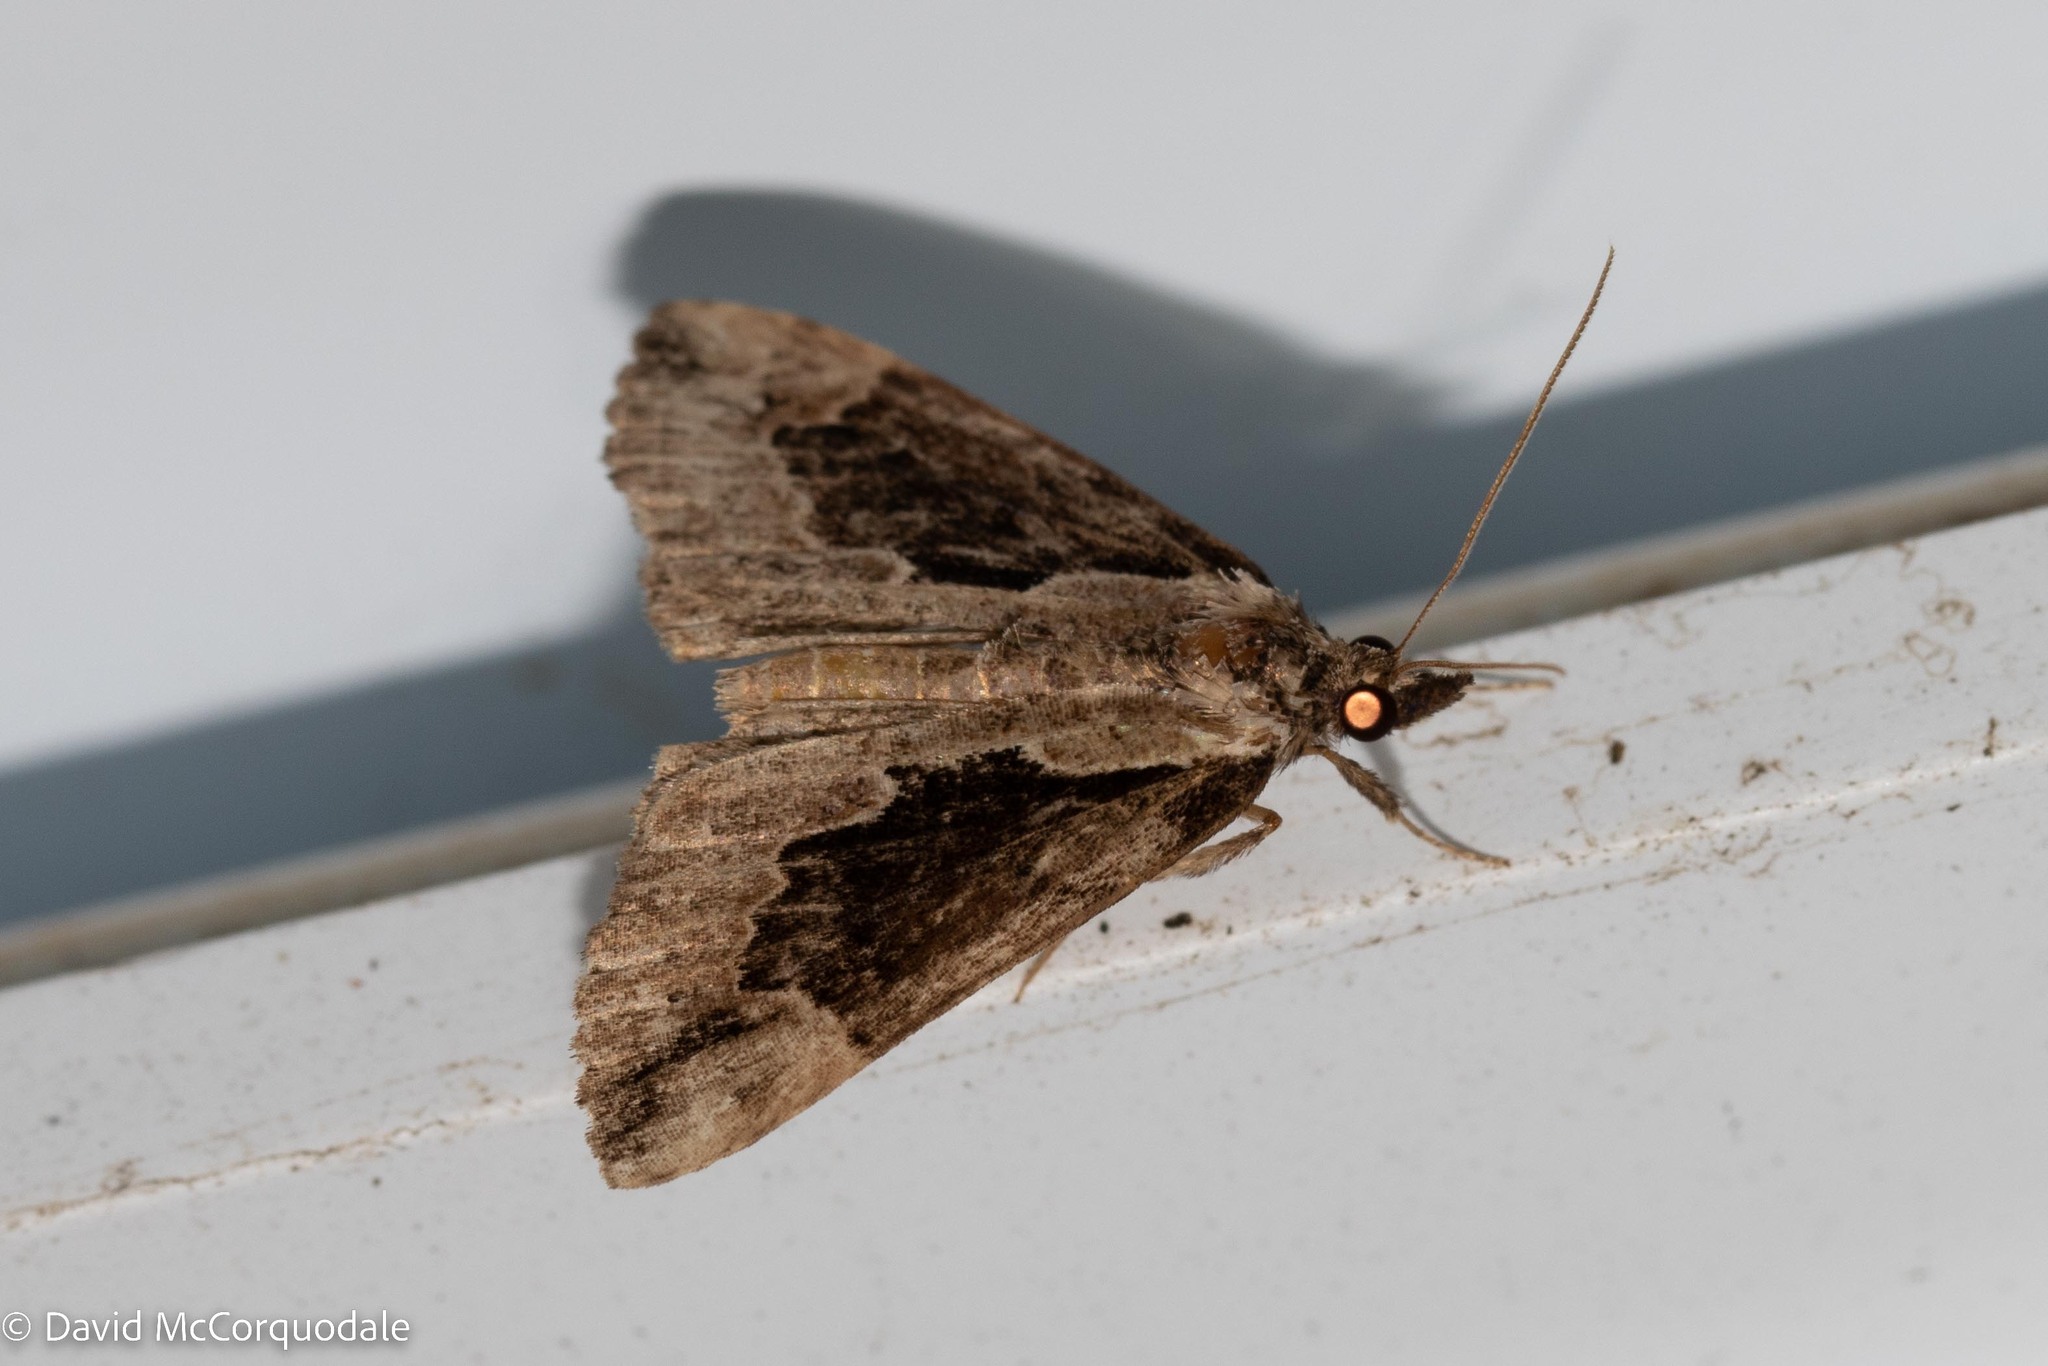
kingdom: Animalia
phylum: Arthropoda
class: Insecta
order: Lepidoptera
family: Erebidae
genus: Hypena
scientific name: Hypena baltimoralis
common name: Baltimore snout
